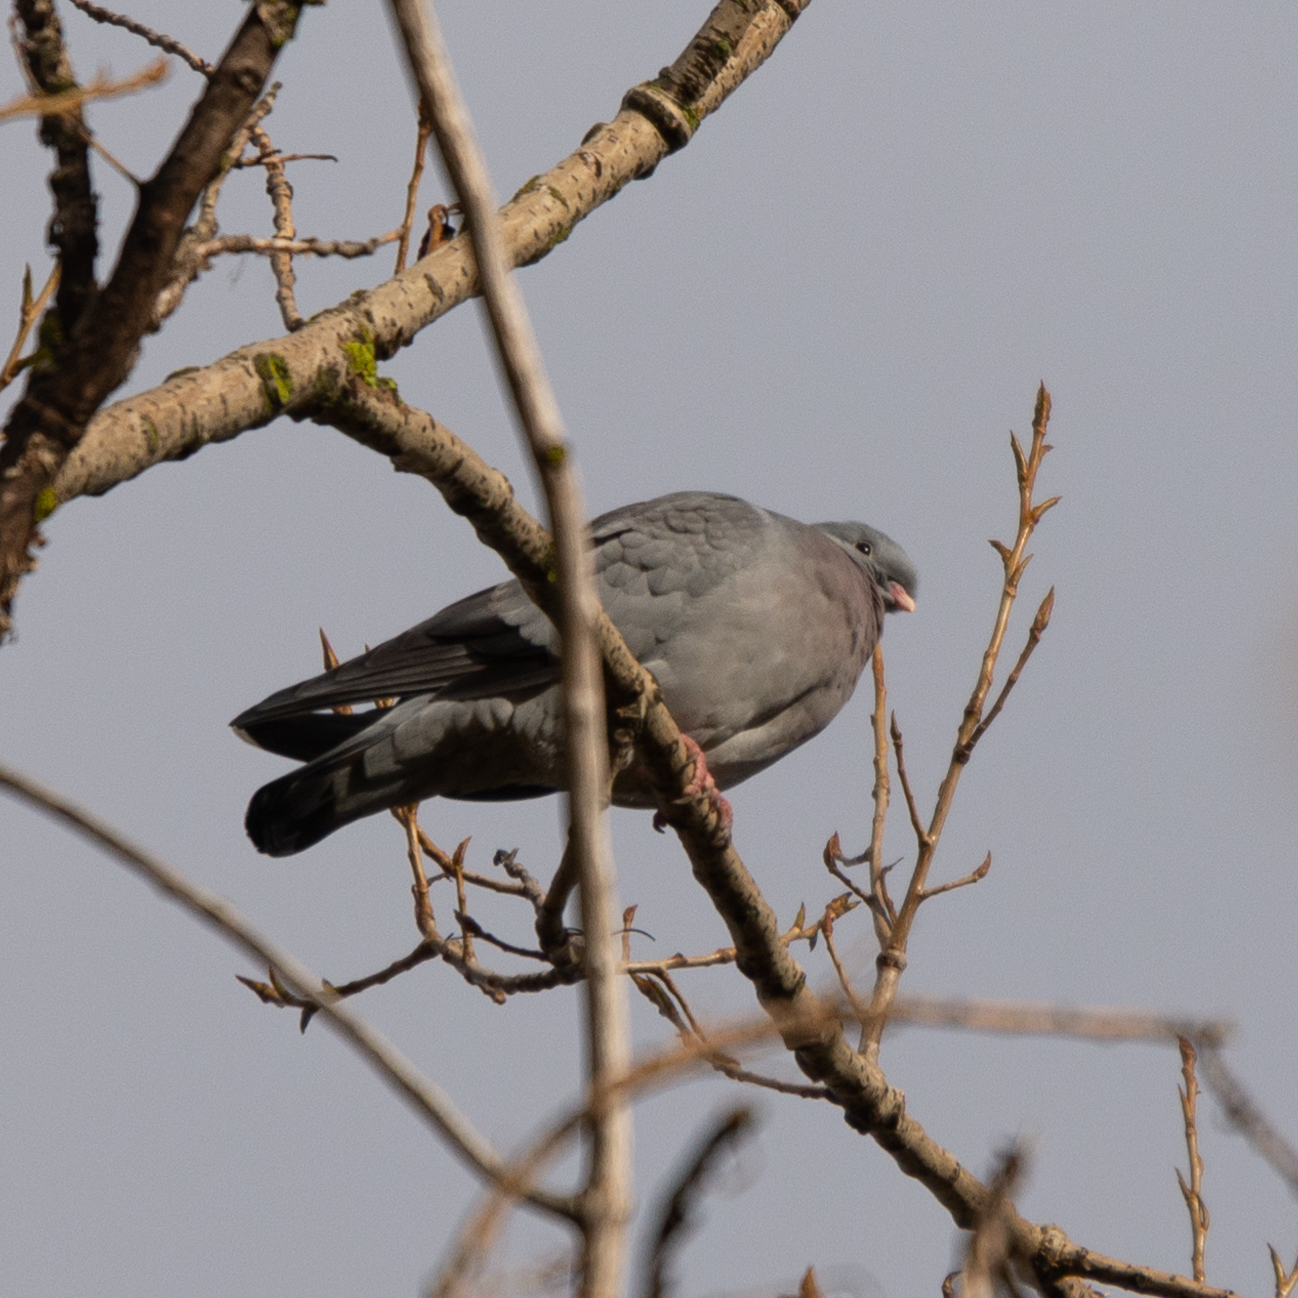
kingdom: Animalia
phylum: Chordata
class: Aves
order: Columbiformes
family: Columbidae
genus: Columba
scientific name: Columba oenas
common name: Stock dove
